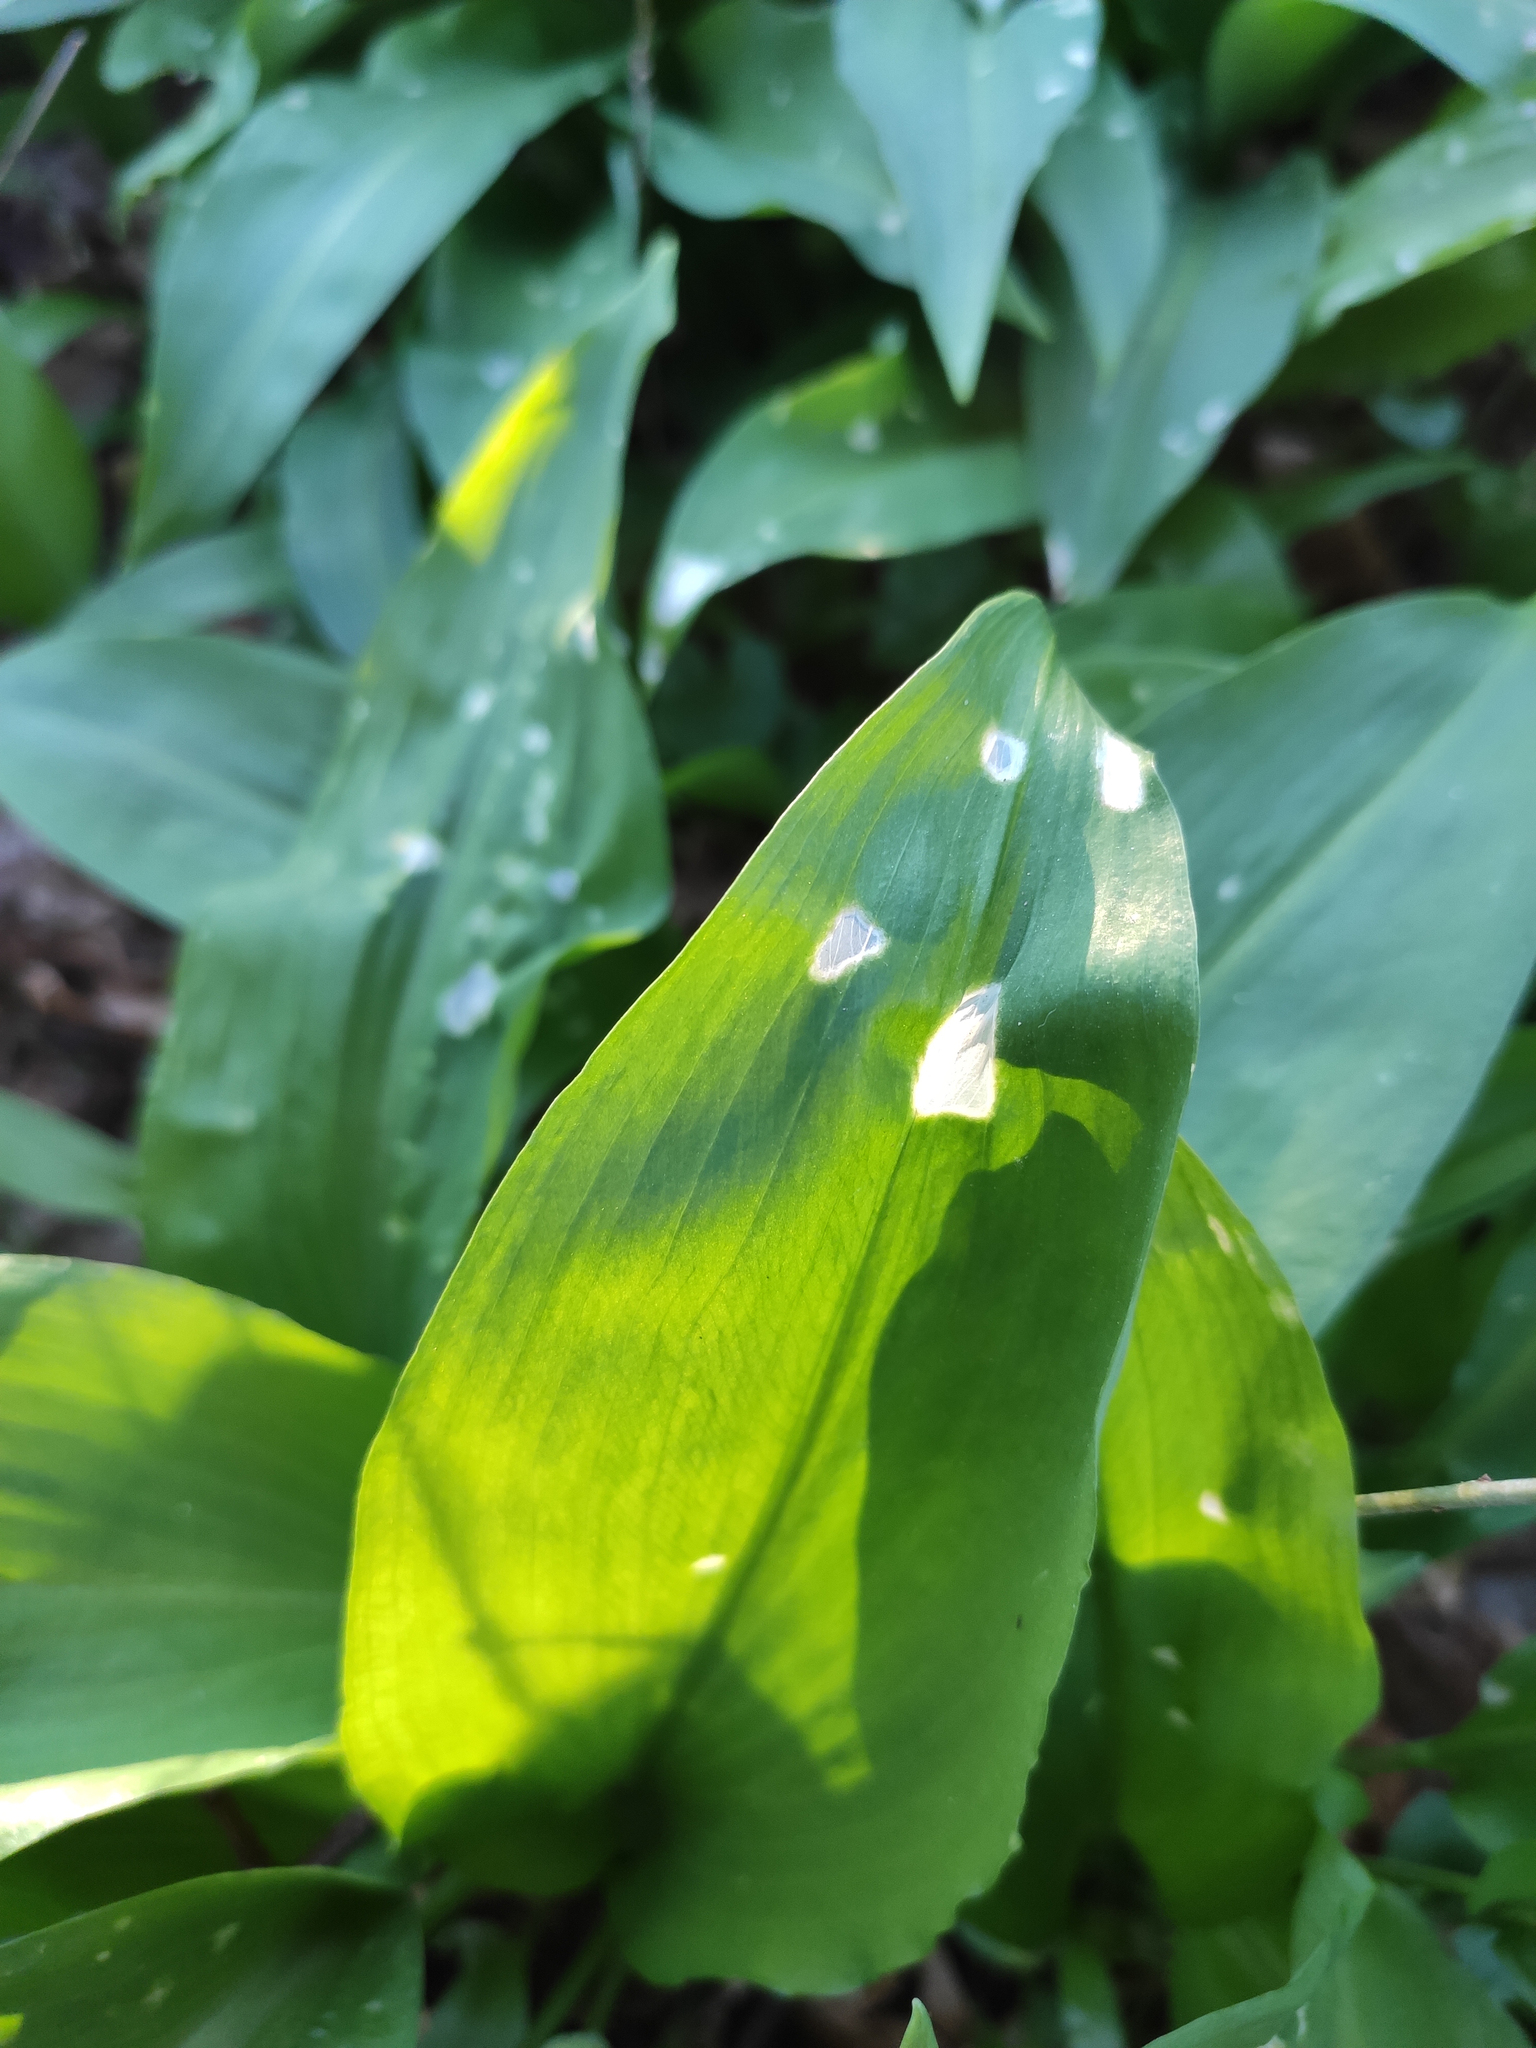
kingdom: Plantae
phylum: Tracheophyta
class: Liliopsida
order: Asparagales
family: Amaryllidaceae
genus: Allium
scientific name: Allium ursinum
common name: Ramsons
